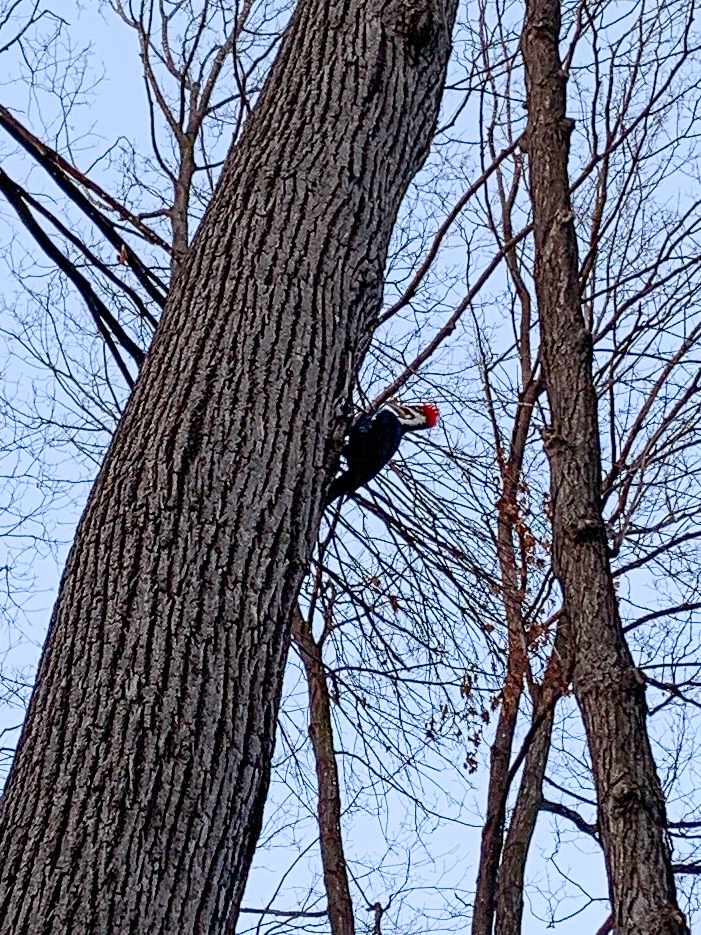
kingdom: Animalia
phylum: Chordata
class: Aves
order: Piciformes
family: Picidae
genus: Dryocopus
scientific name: Dryocopus pileatus
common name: Pileated woodpecker
